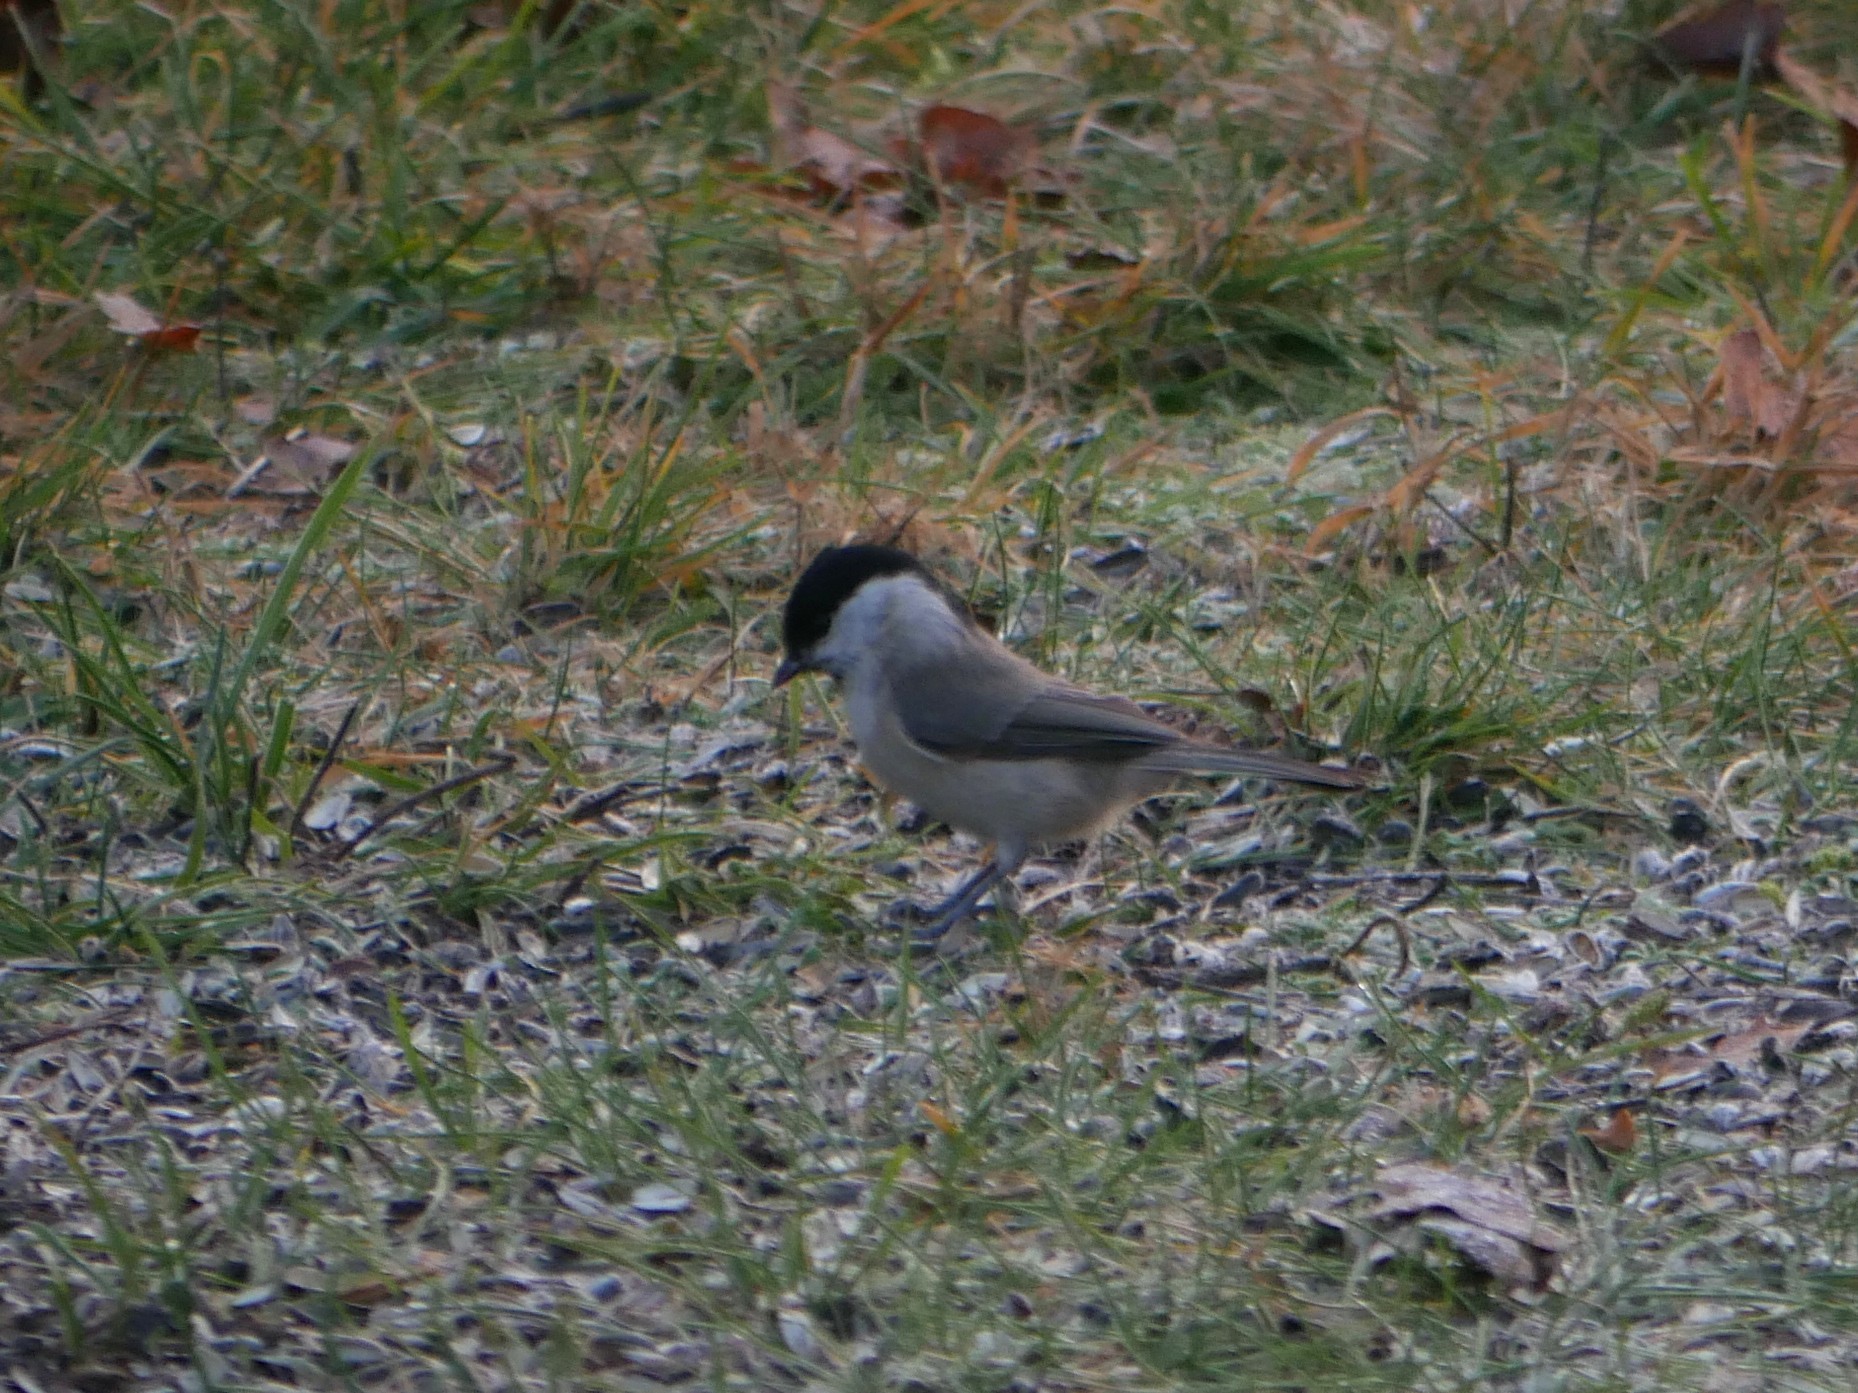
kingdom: Animalia
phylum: Chordata
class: Aves
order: Passeriformes
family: Paridae
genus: Poecile
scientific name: Poecile palustris
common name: Marsh tit
